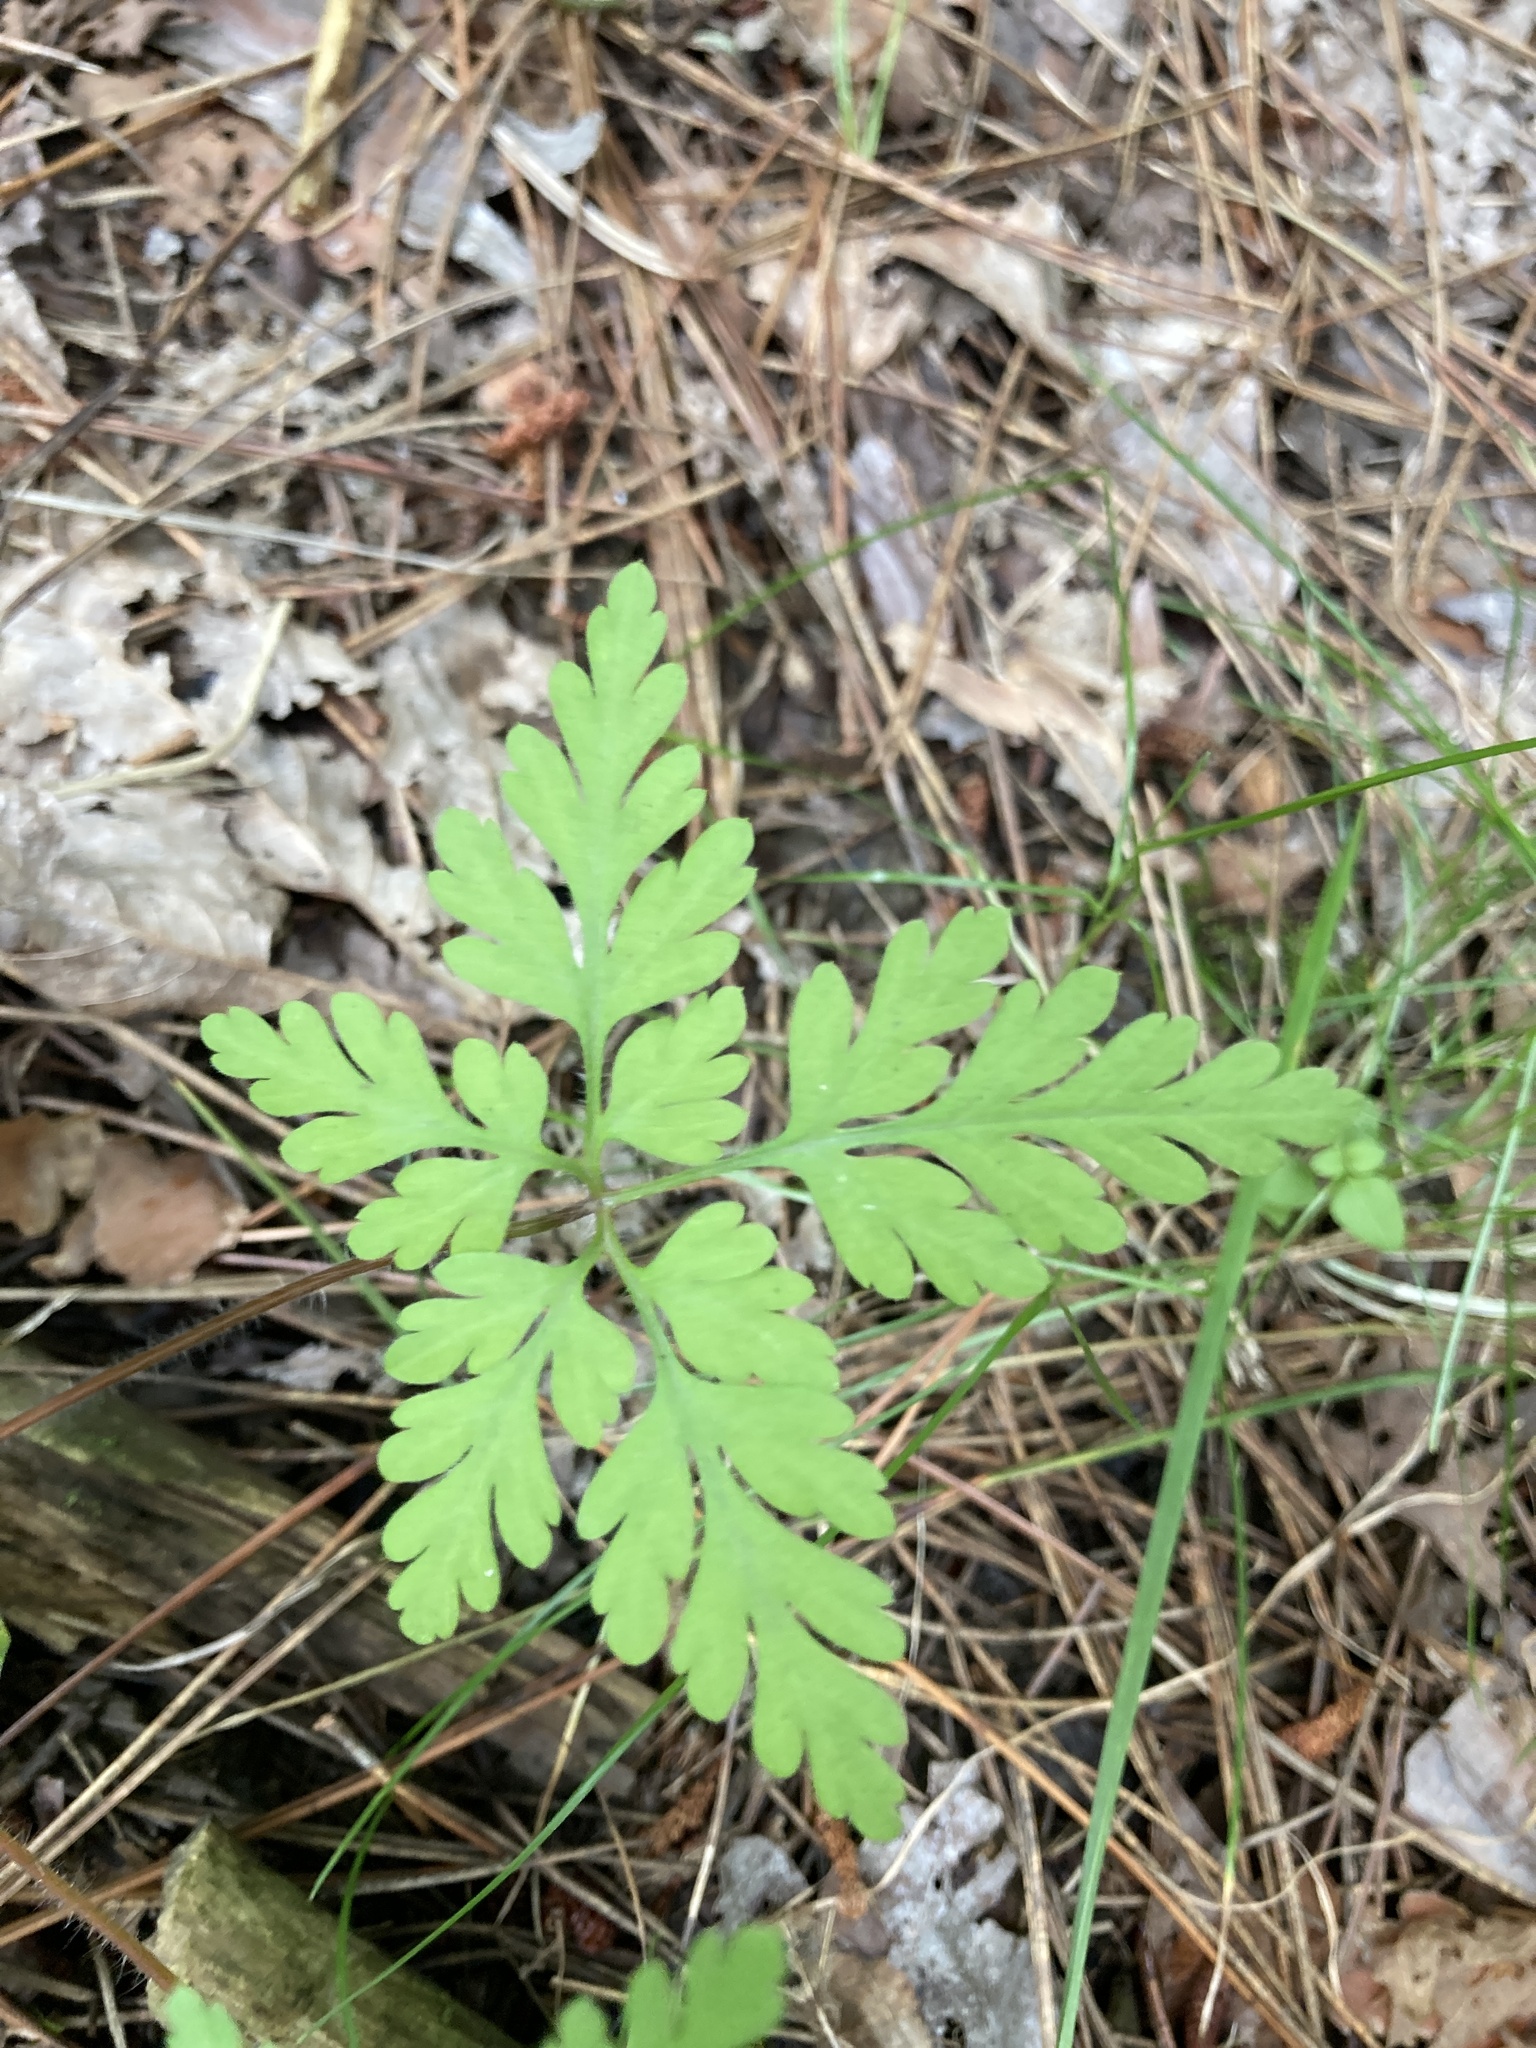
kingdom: Plantae
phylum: Tracheophyta
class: Magnoliopsida
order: Geraniales
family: Geraniaceae
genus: Geranium
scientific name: Geranium robertianum
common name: Herb-robert
